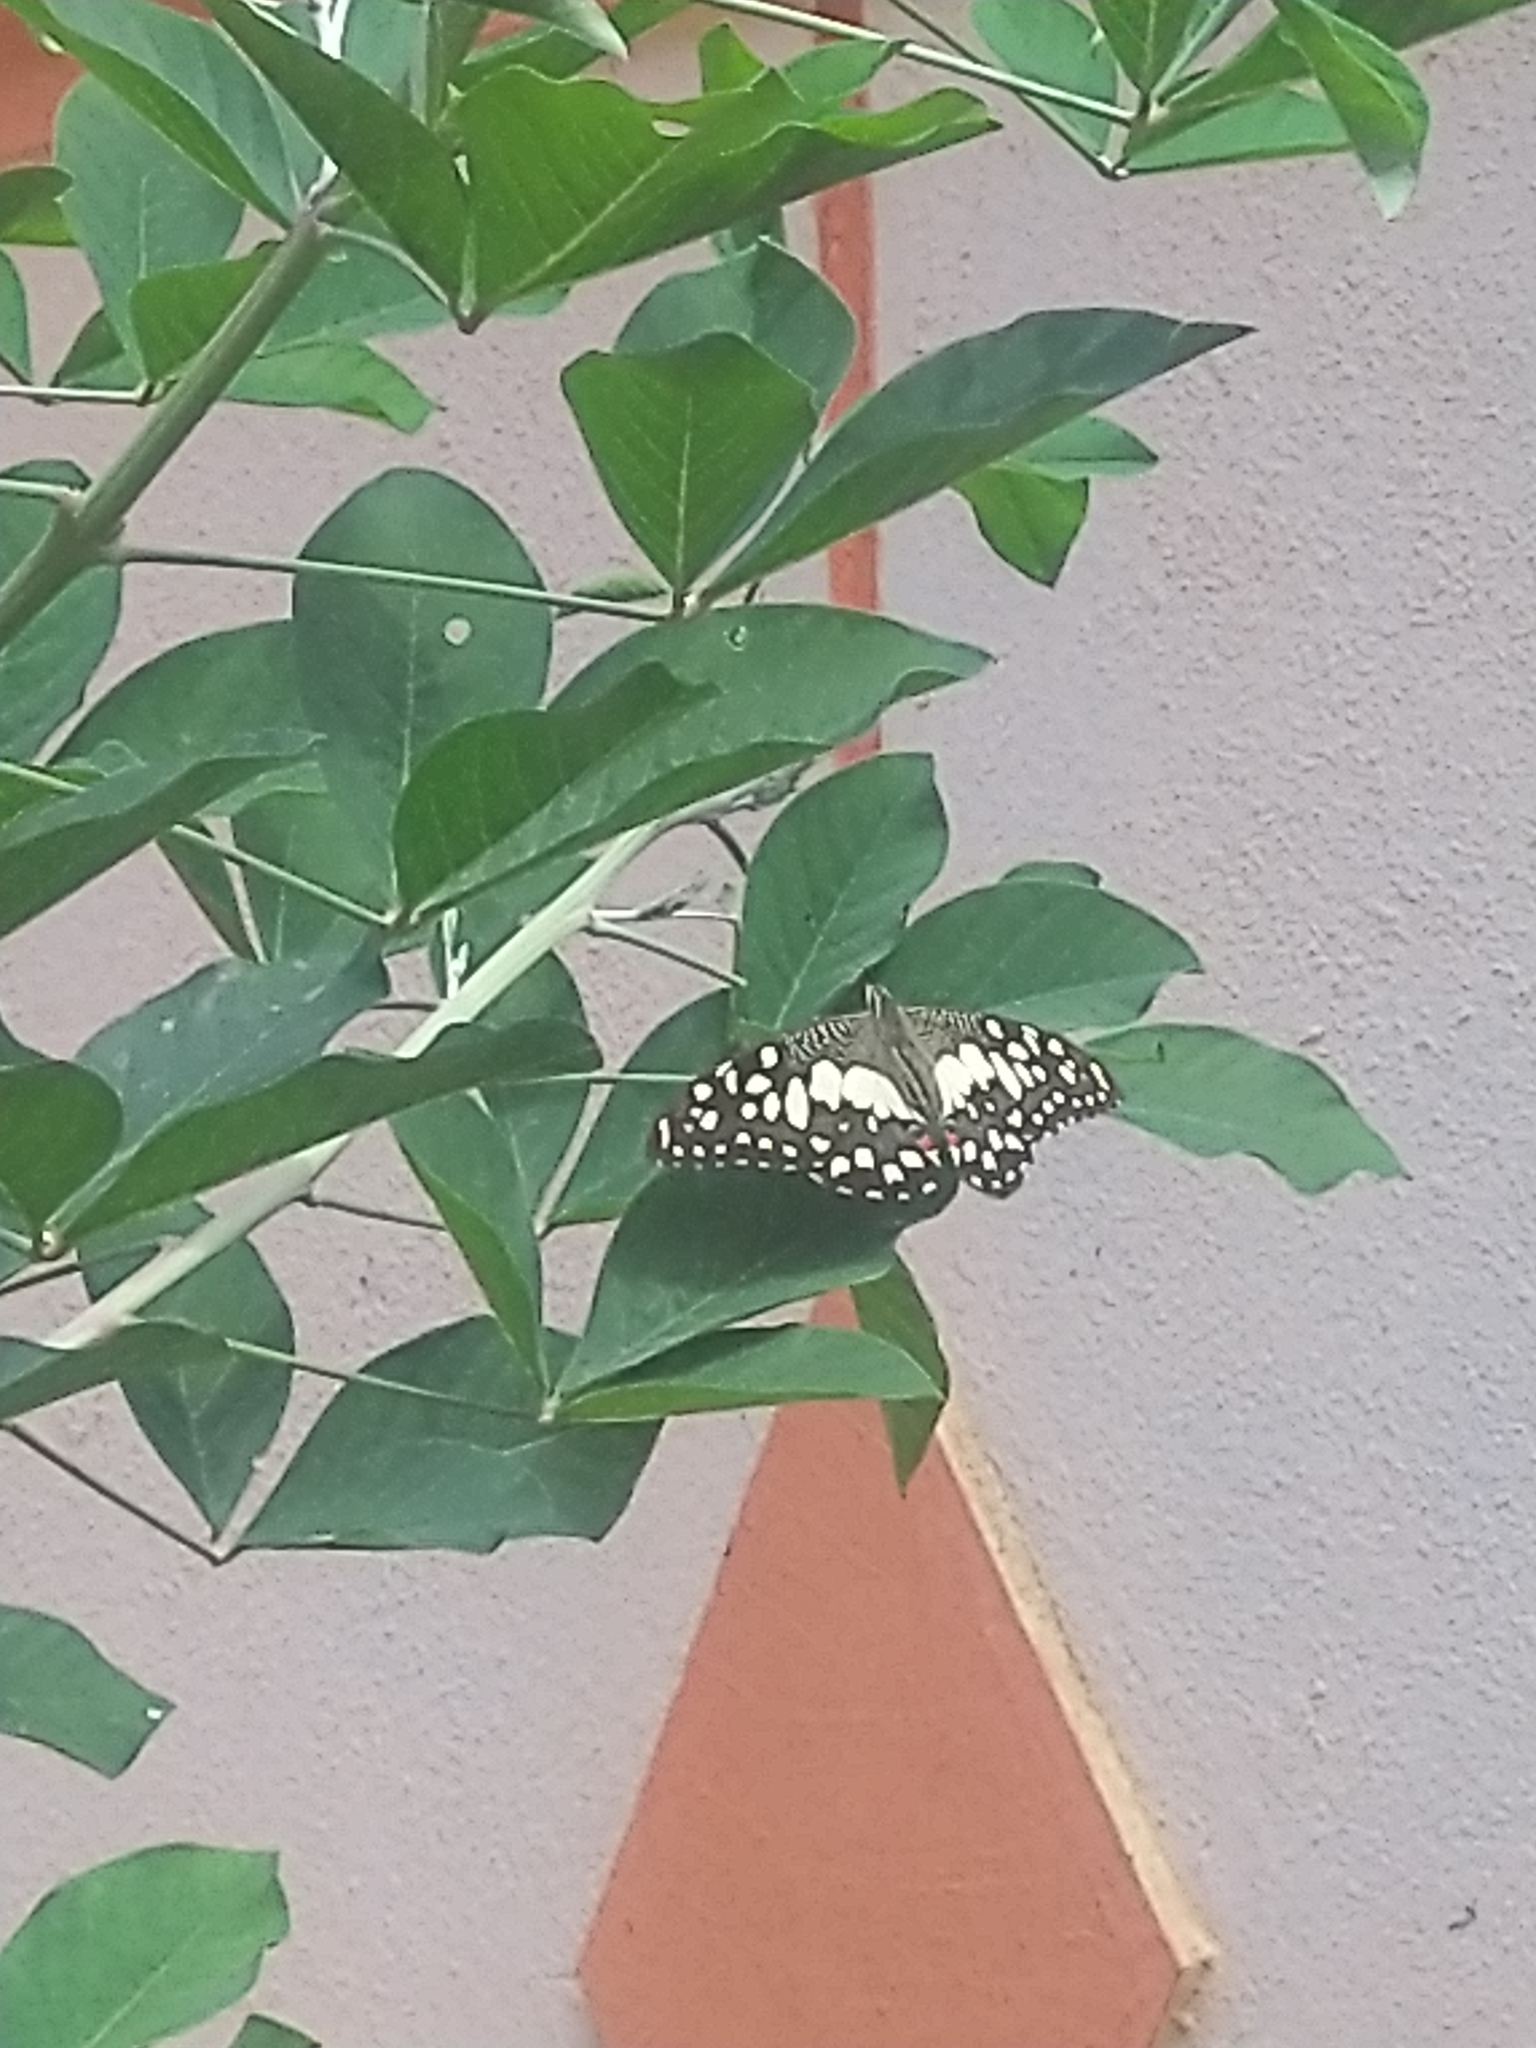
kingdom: Animalia
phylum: Arthropoda
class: Insecta
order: Lepidoptera
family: Papilionidae
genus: Papilio
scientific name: Papilio demoleus
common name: Lime butterfly
